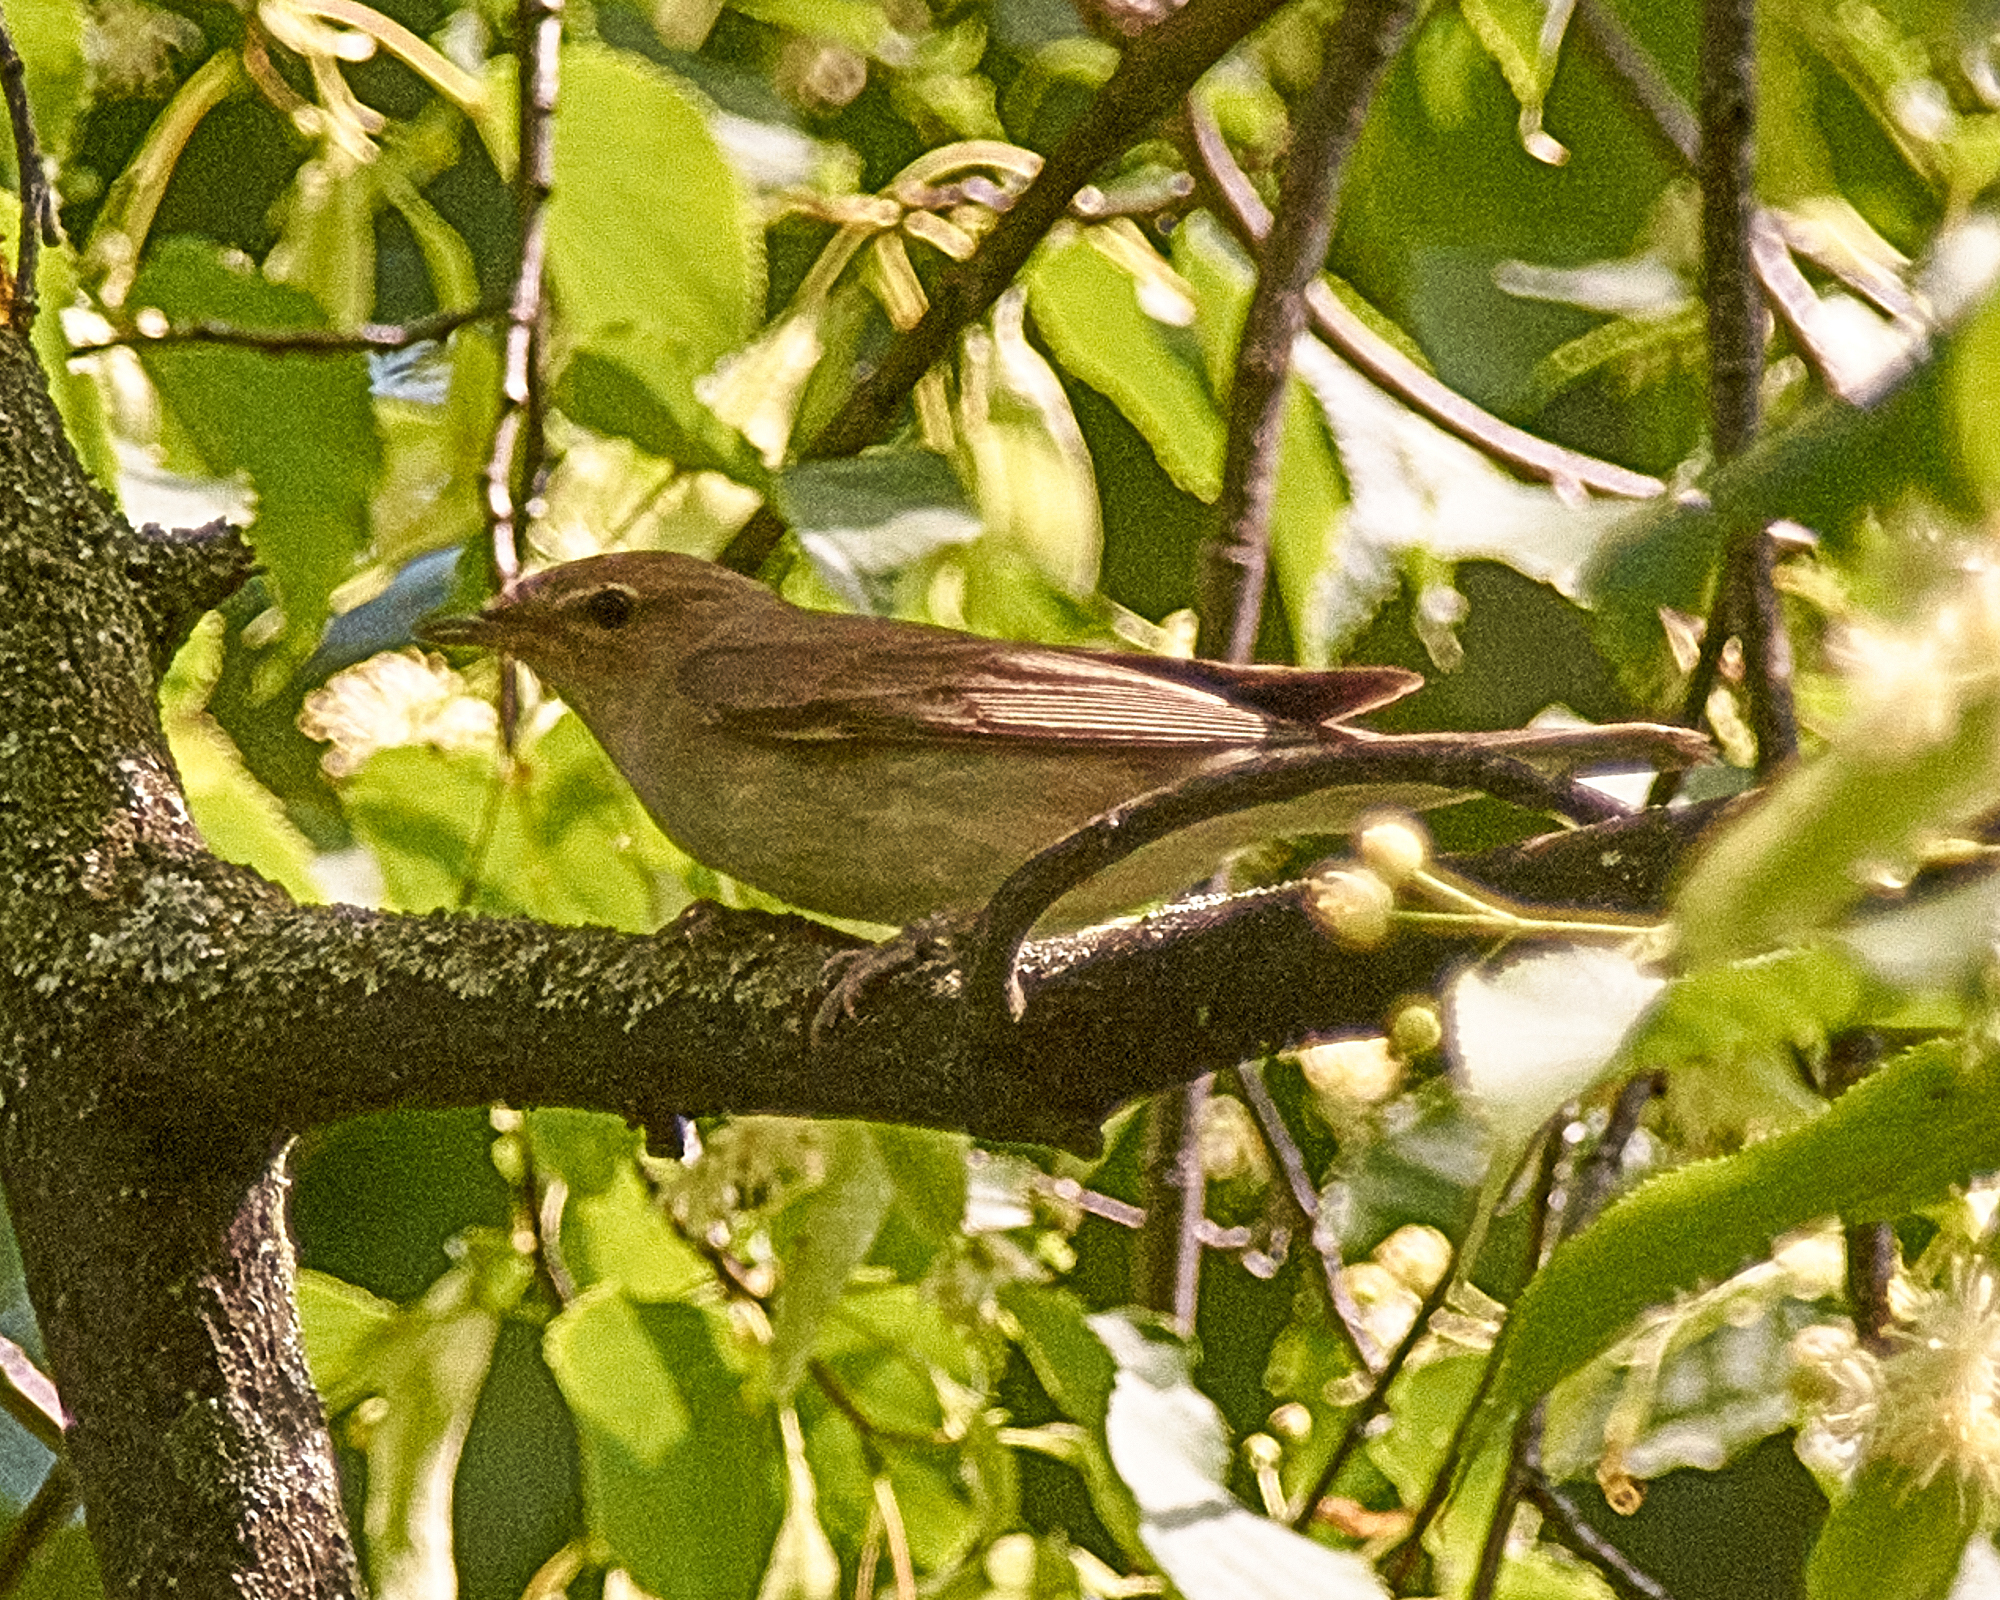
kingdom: Animalia
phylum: Chordata
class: Aves
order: Passeriformes
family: Sylviidae
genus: Sylvia
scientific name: Sylvia borin
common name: Garden warbler
